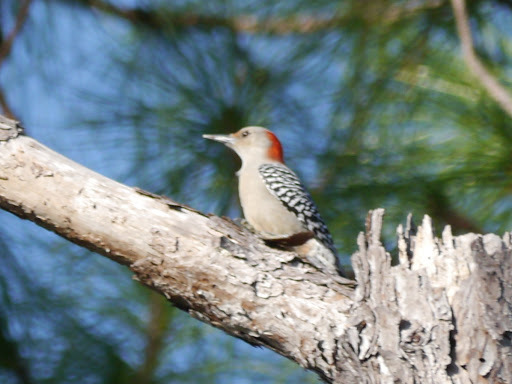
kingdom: Animalia
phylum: Chordata
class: Aves
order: Piciformes
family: Picidae
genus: Melanerpes
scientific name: Melanerpes carolinus
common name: Red-bellied woodpecker
